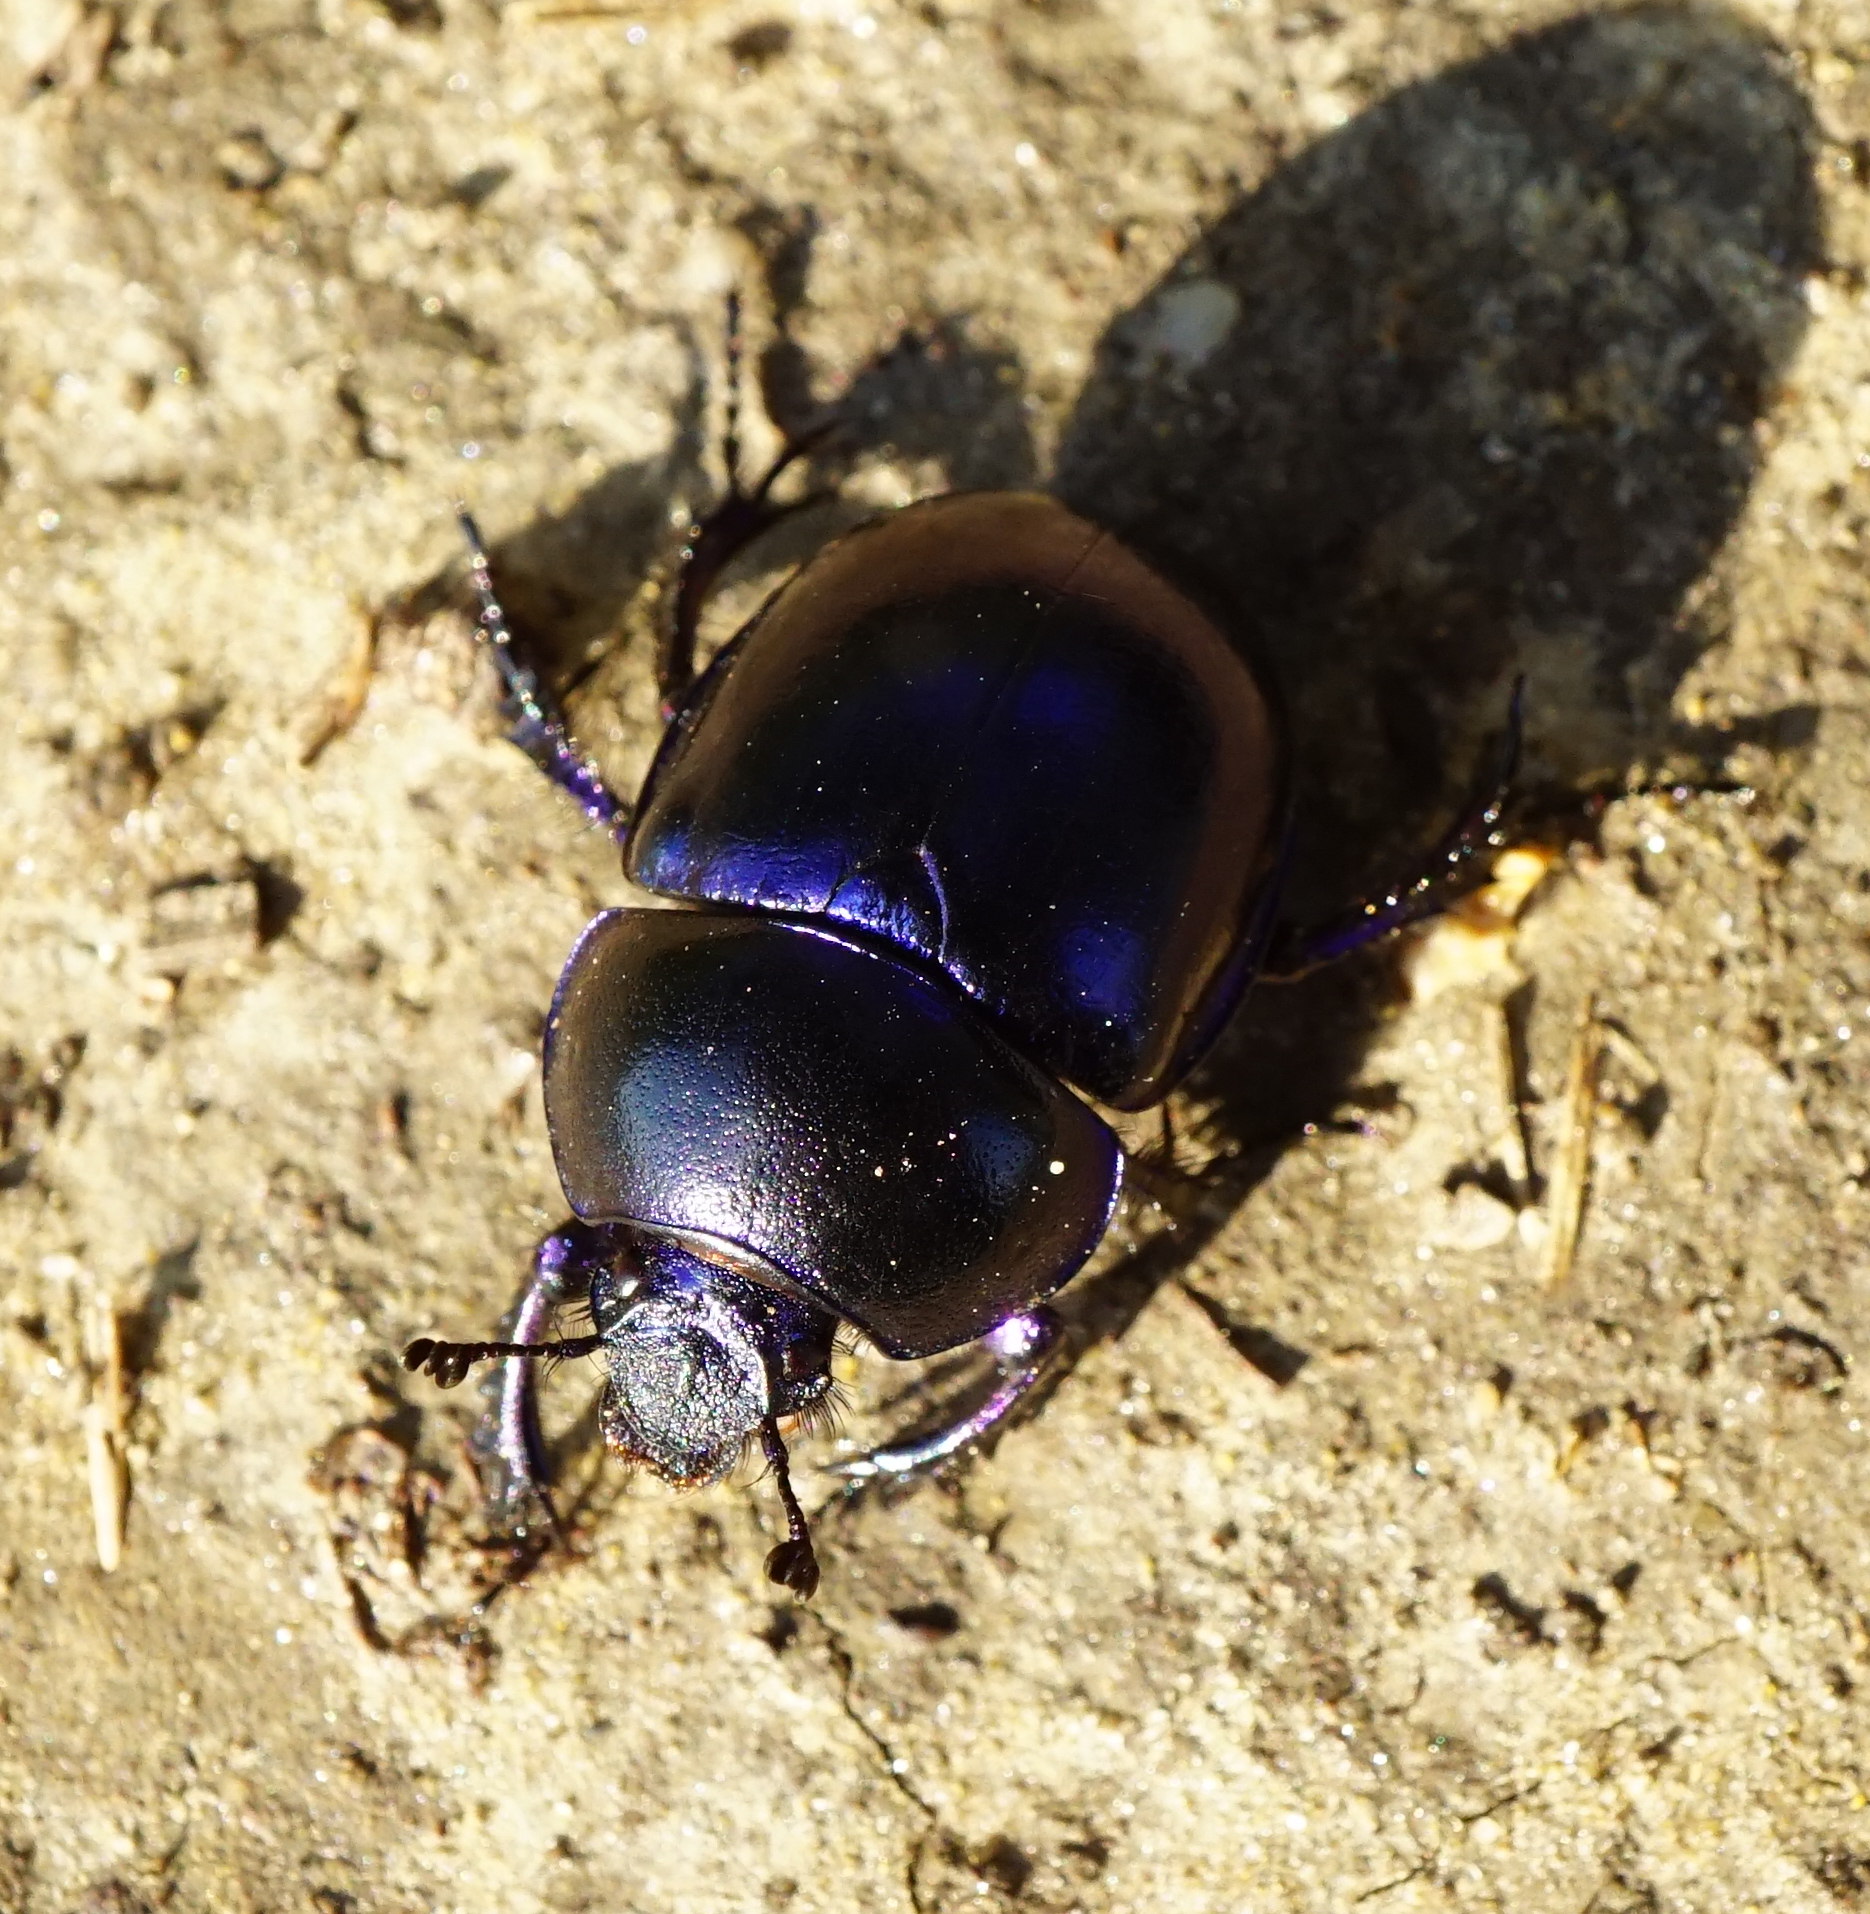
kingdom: Animalia
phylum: Arthropoda
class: Insecta
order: Coleoptera
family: Geotrupidae
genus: Trypocopris
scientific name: Trypocopris vernalis
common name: Spring dumbledor
